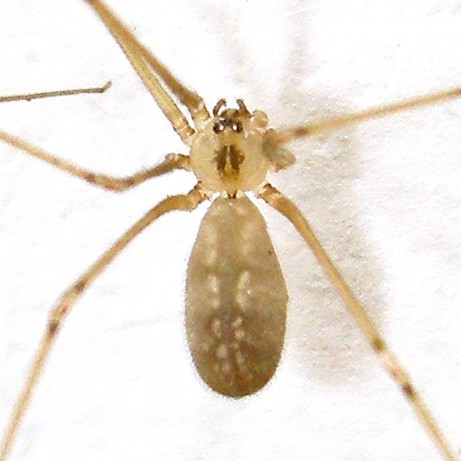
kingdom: Animalia
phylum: Arthropoda
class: Arachnida
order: Araneae
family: Pholcidae
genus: Pholcus
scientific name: Pholcus manueli
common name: Cellar spider
